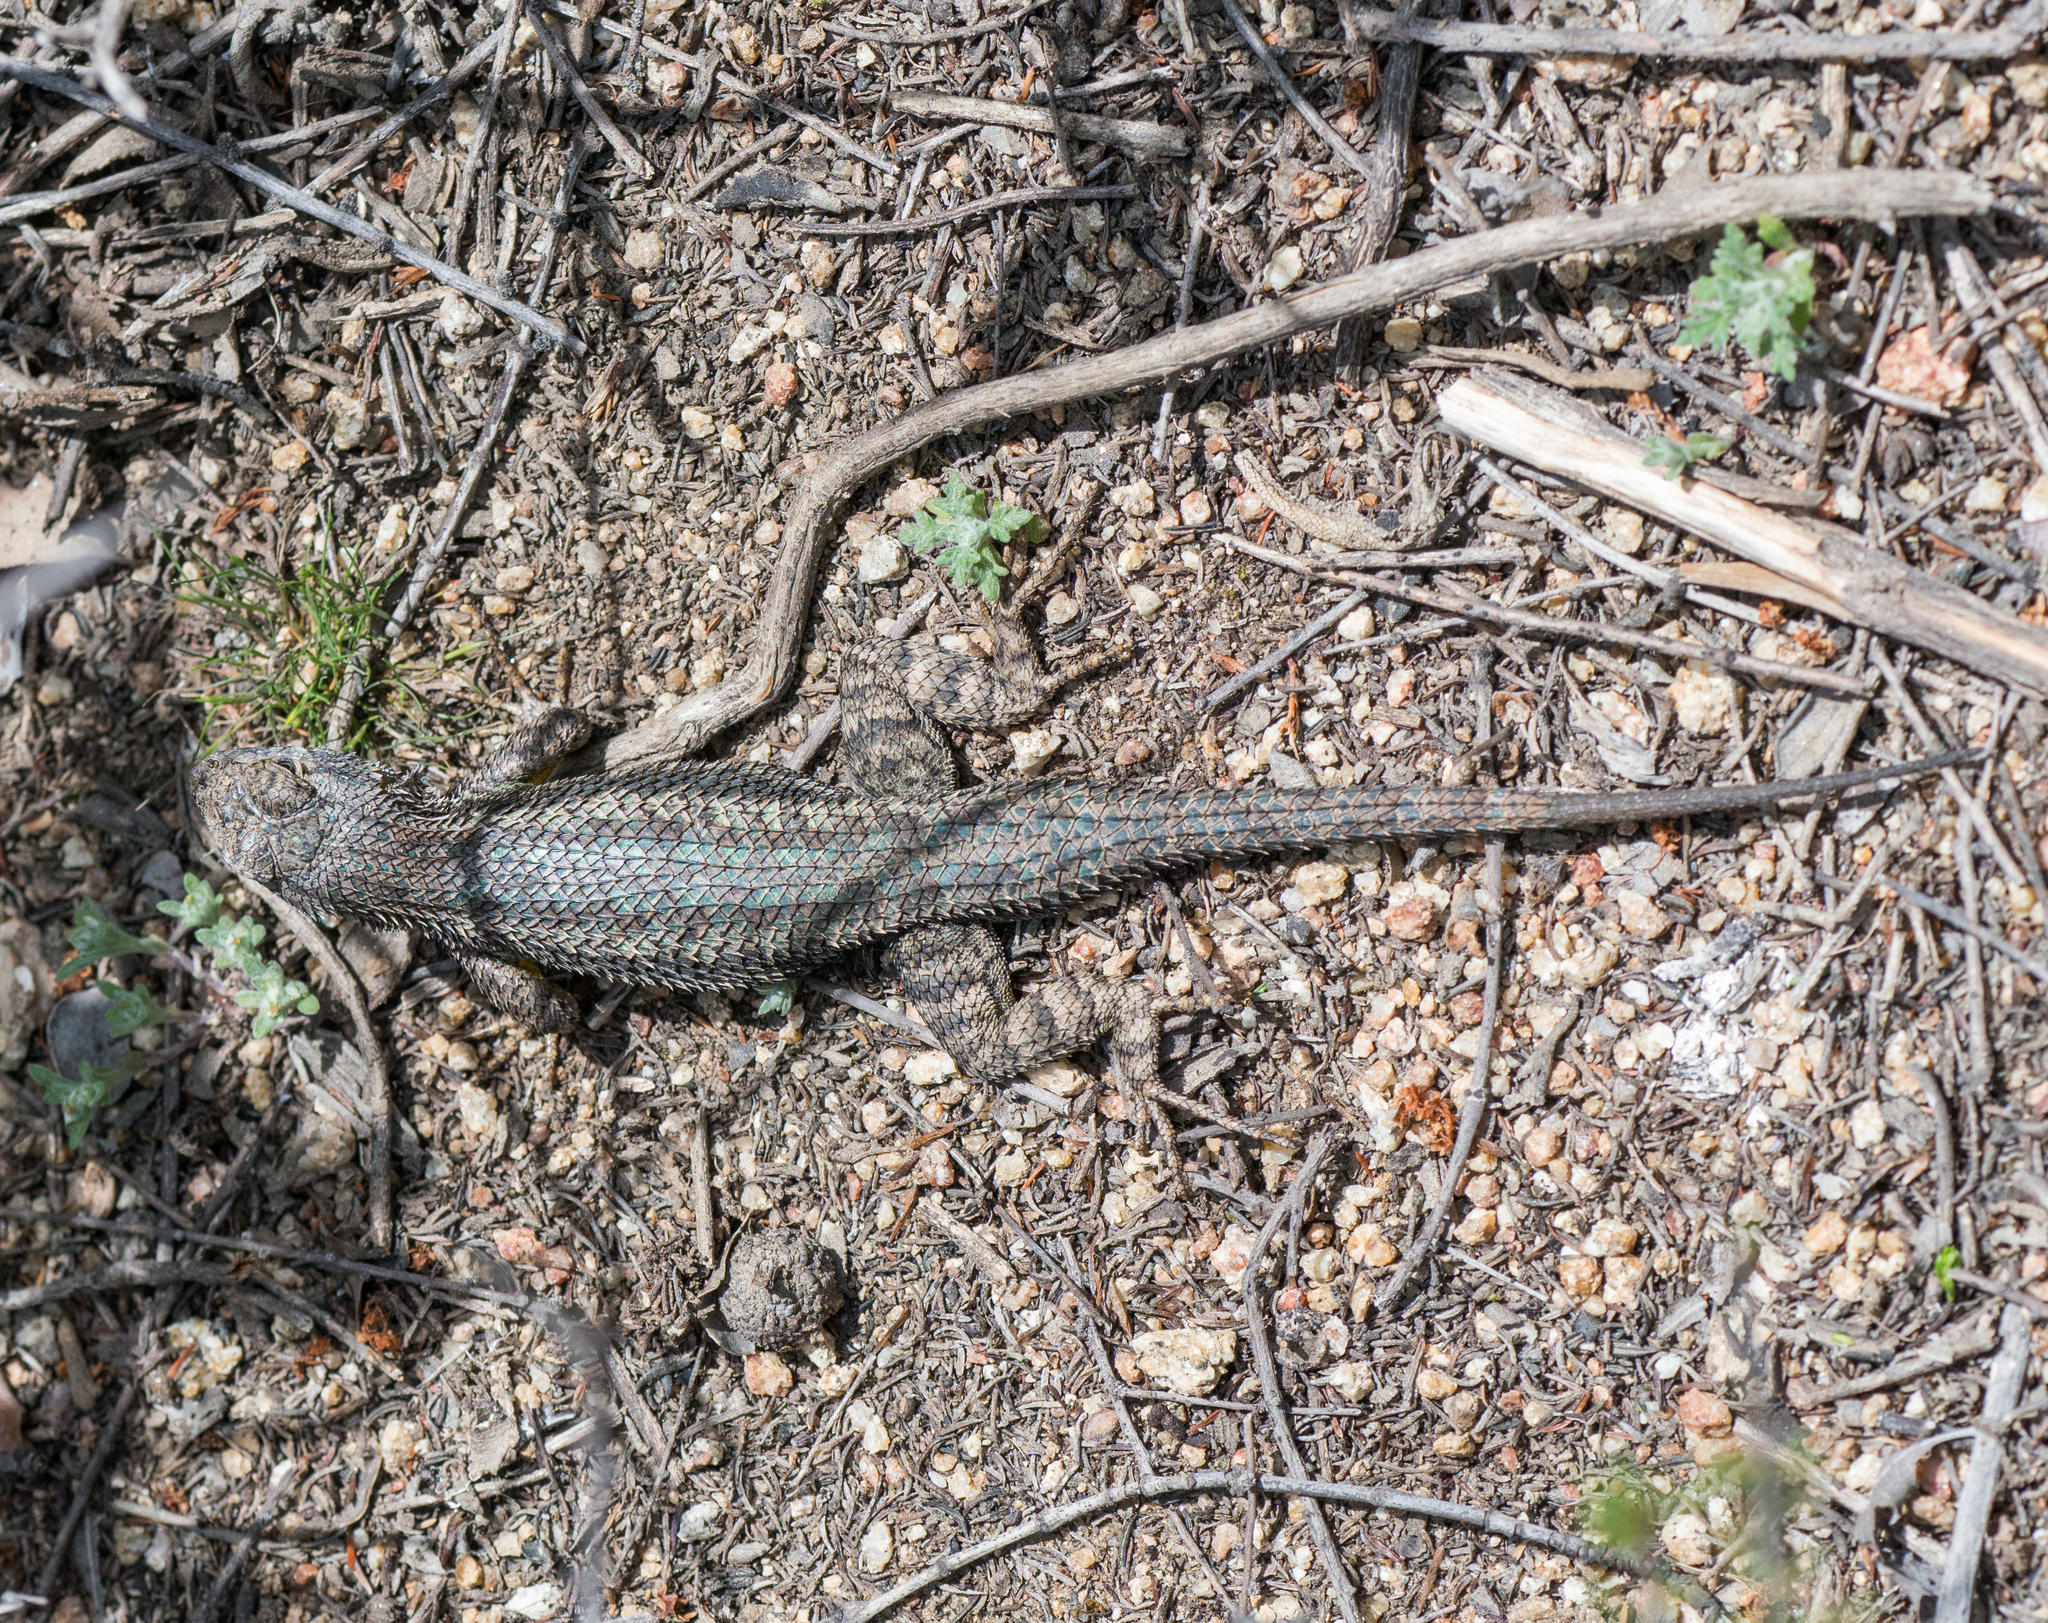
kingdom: Animalia
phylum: Chordata
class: Squamata
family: Phrynosomatidae
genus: Sceloporus
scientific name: Sceloporus occidentalis
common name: Western fence lizard
